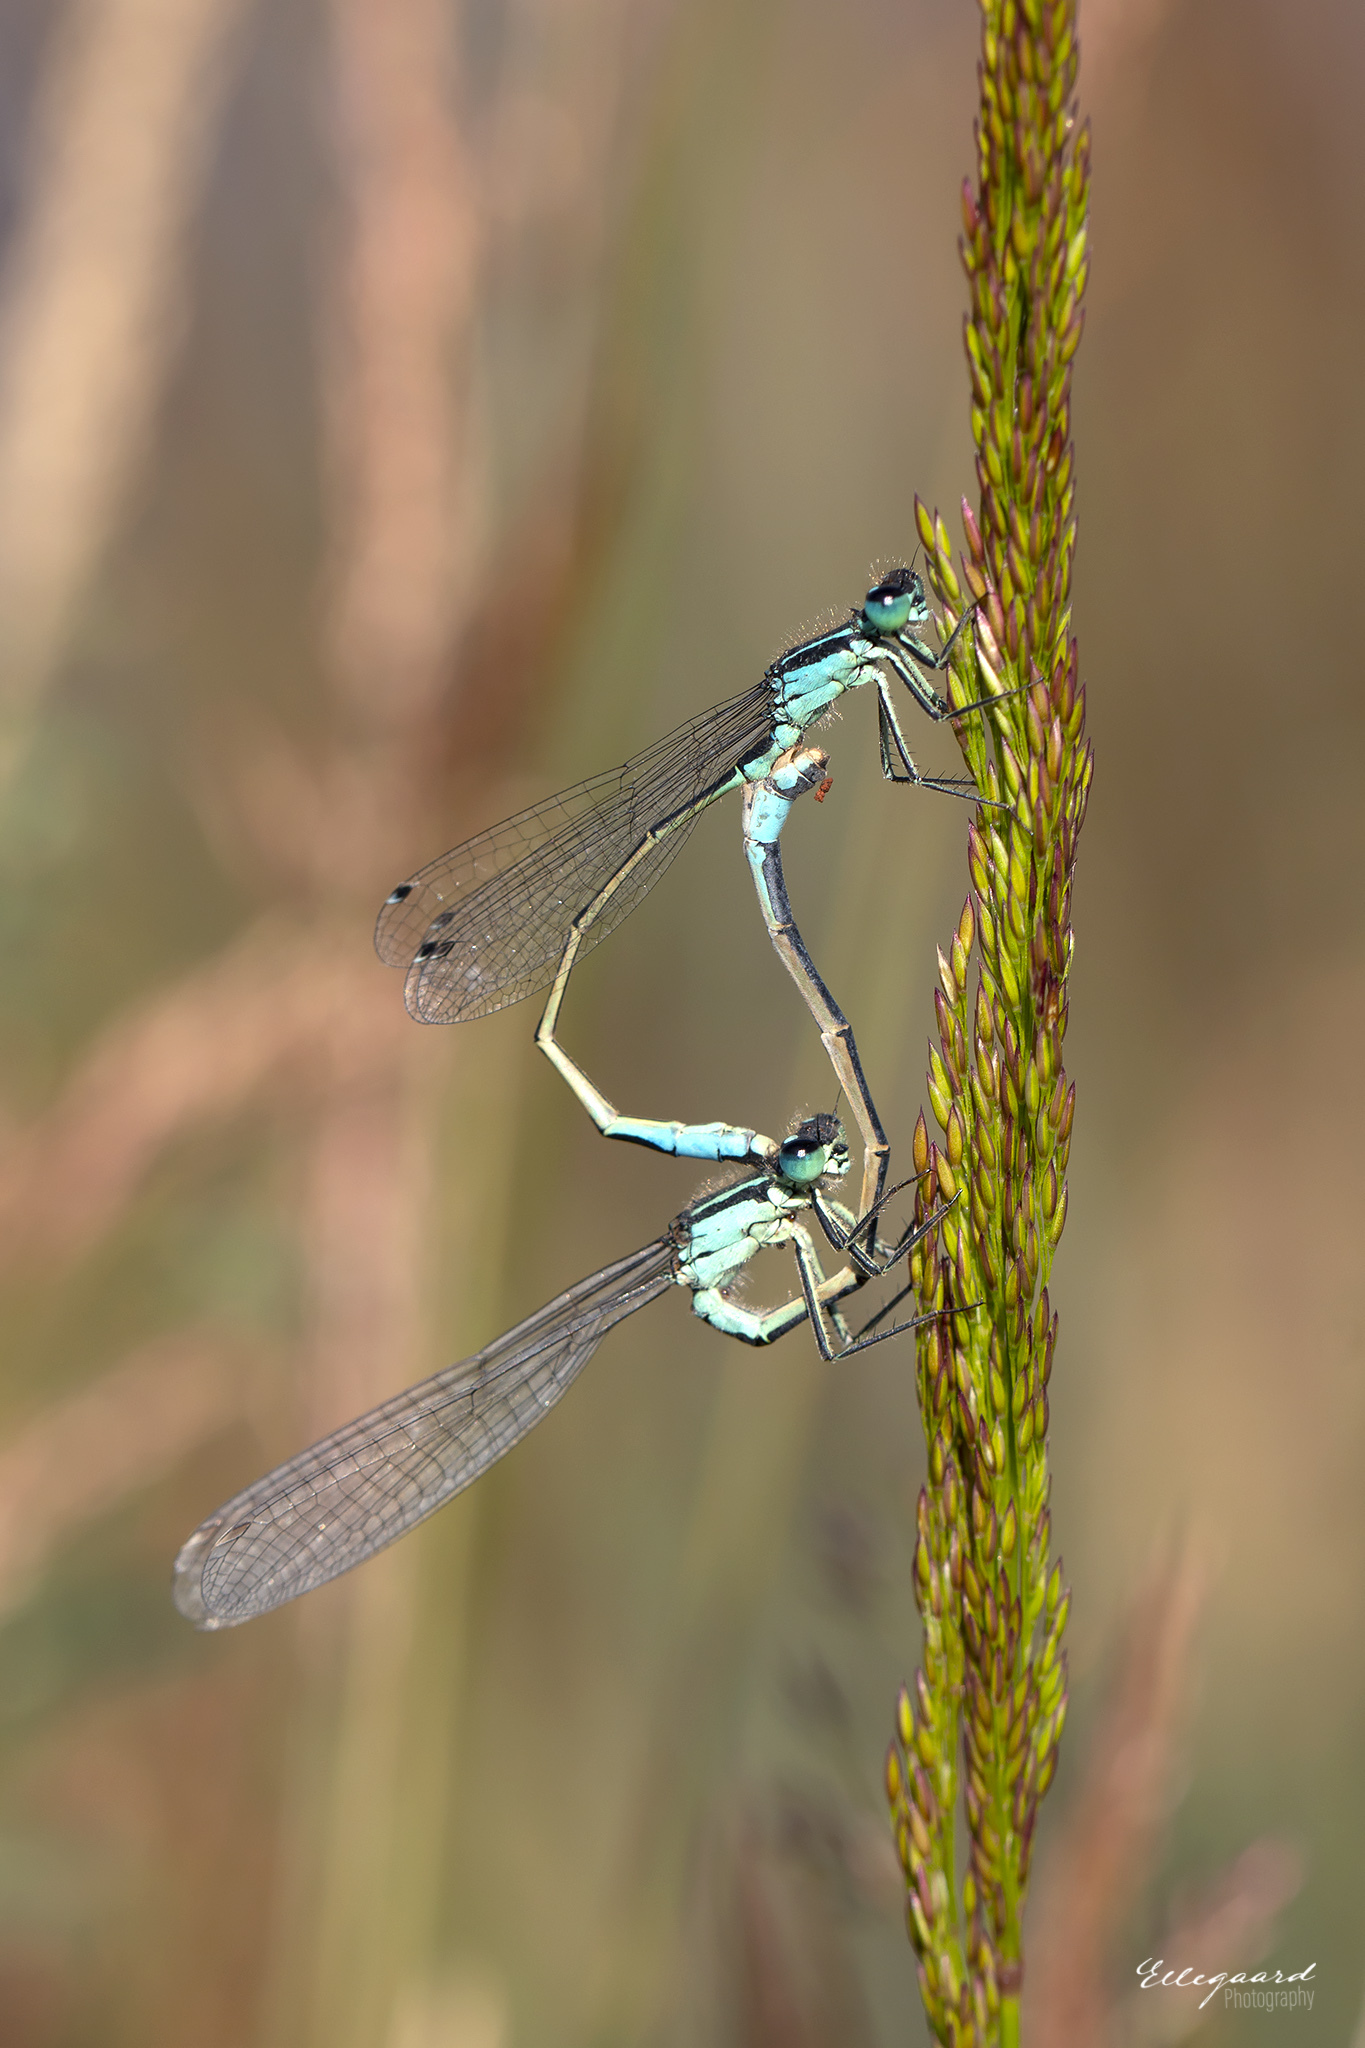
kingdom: Animalia
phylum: Arthropoda
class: Insecta
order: Odonata
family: Coenagrionidae
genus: Ischnura
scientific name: Ischnura elegans
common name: Blue-tailed damselfly
